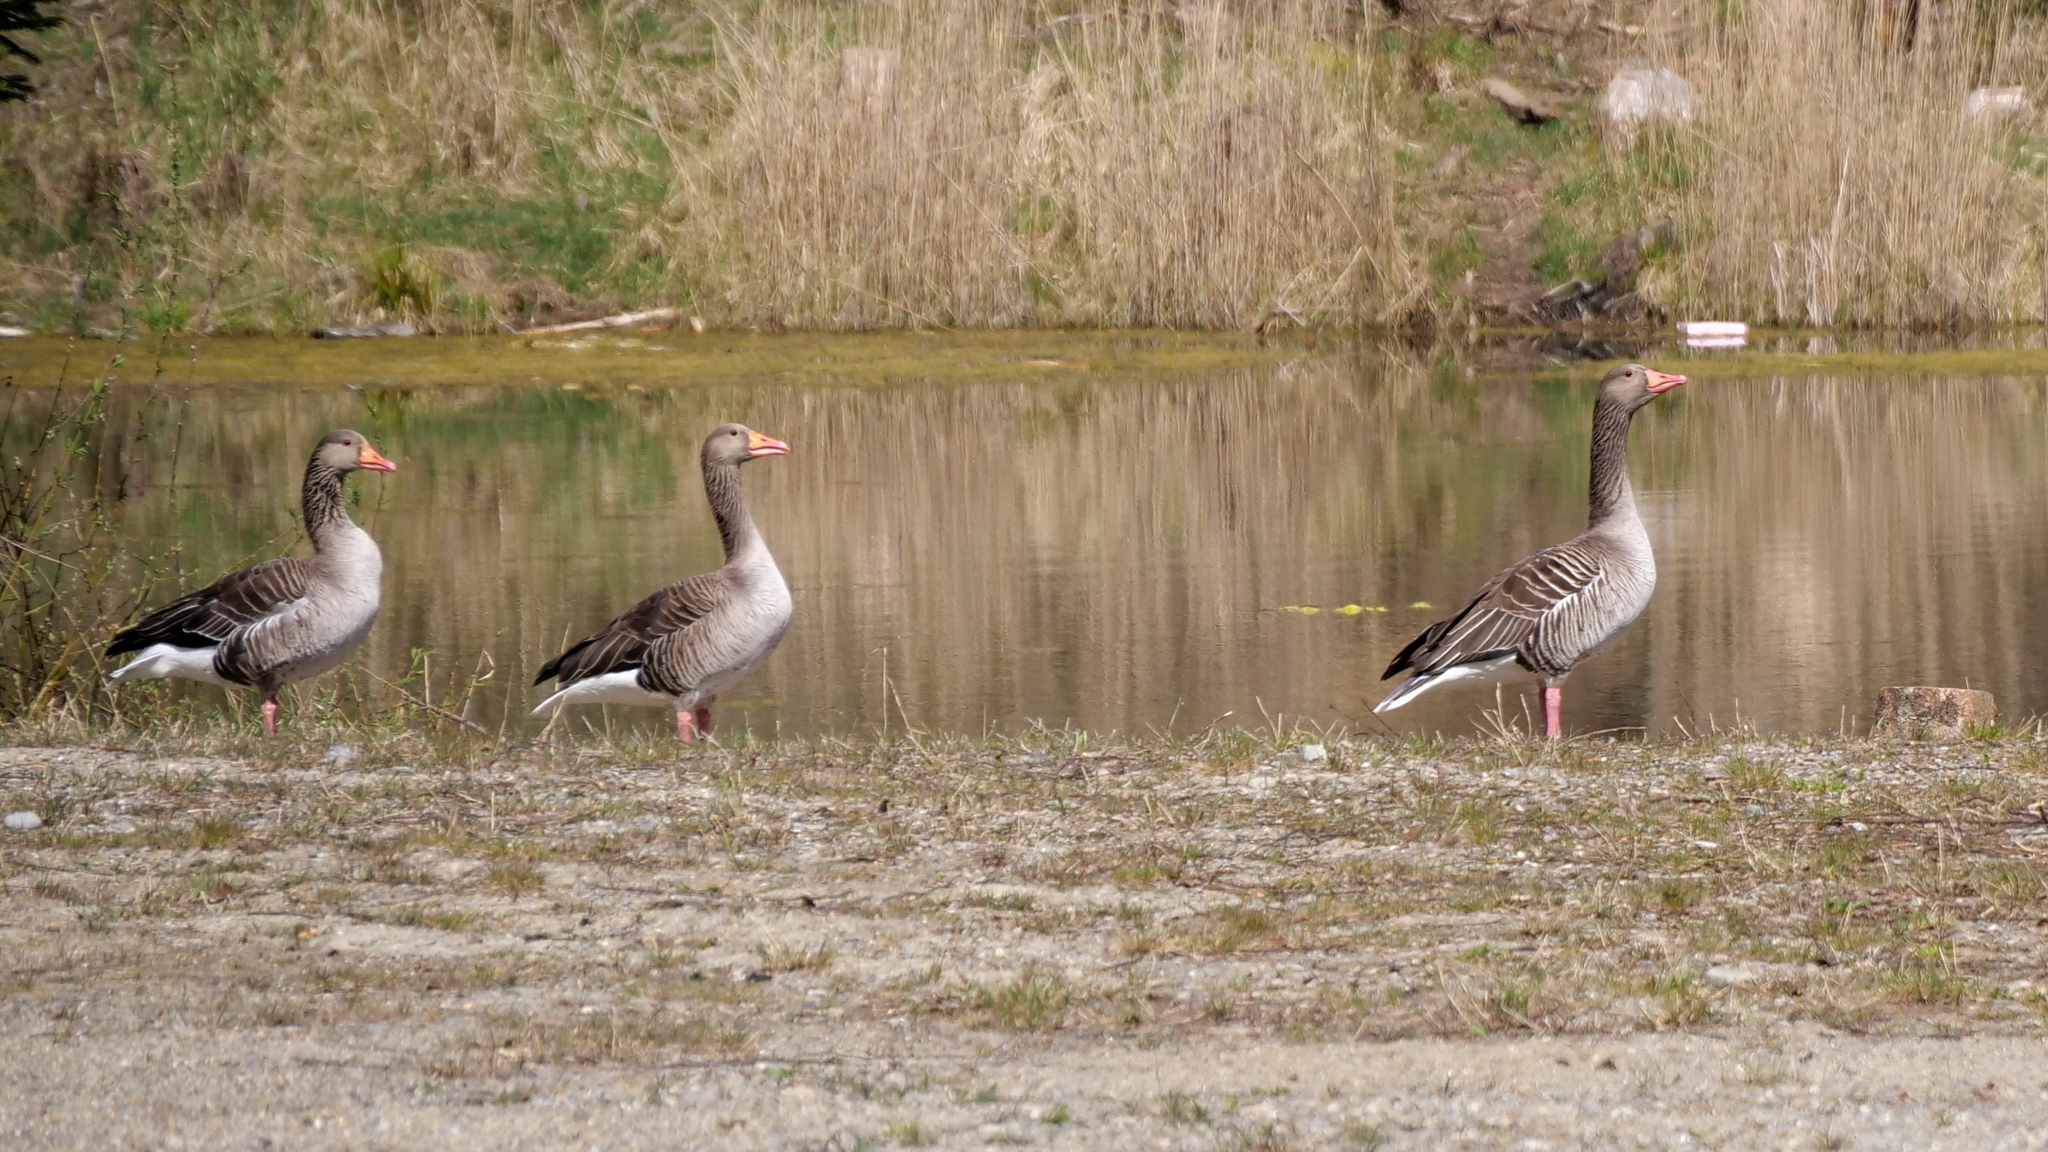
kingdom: Animalia
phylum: Chordata
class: Aves
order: Anseriformes
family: Anatidae
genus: Anser
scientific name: Anser anser
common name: Greylag goose
